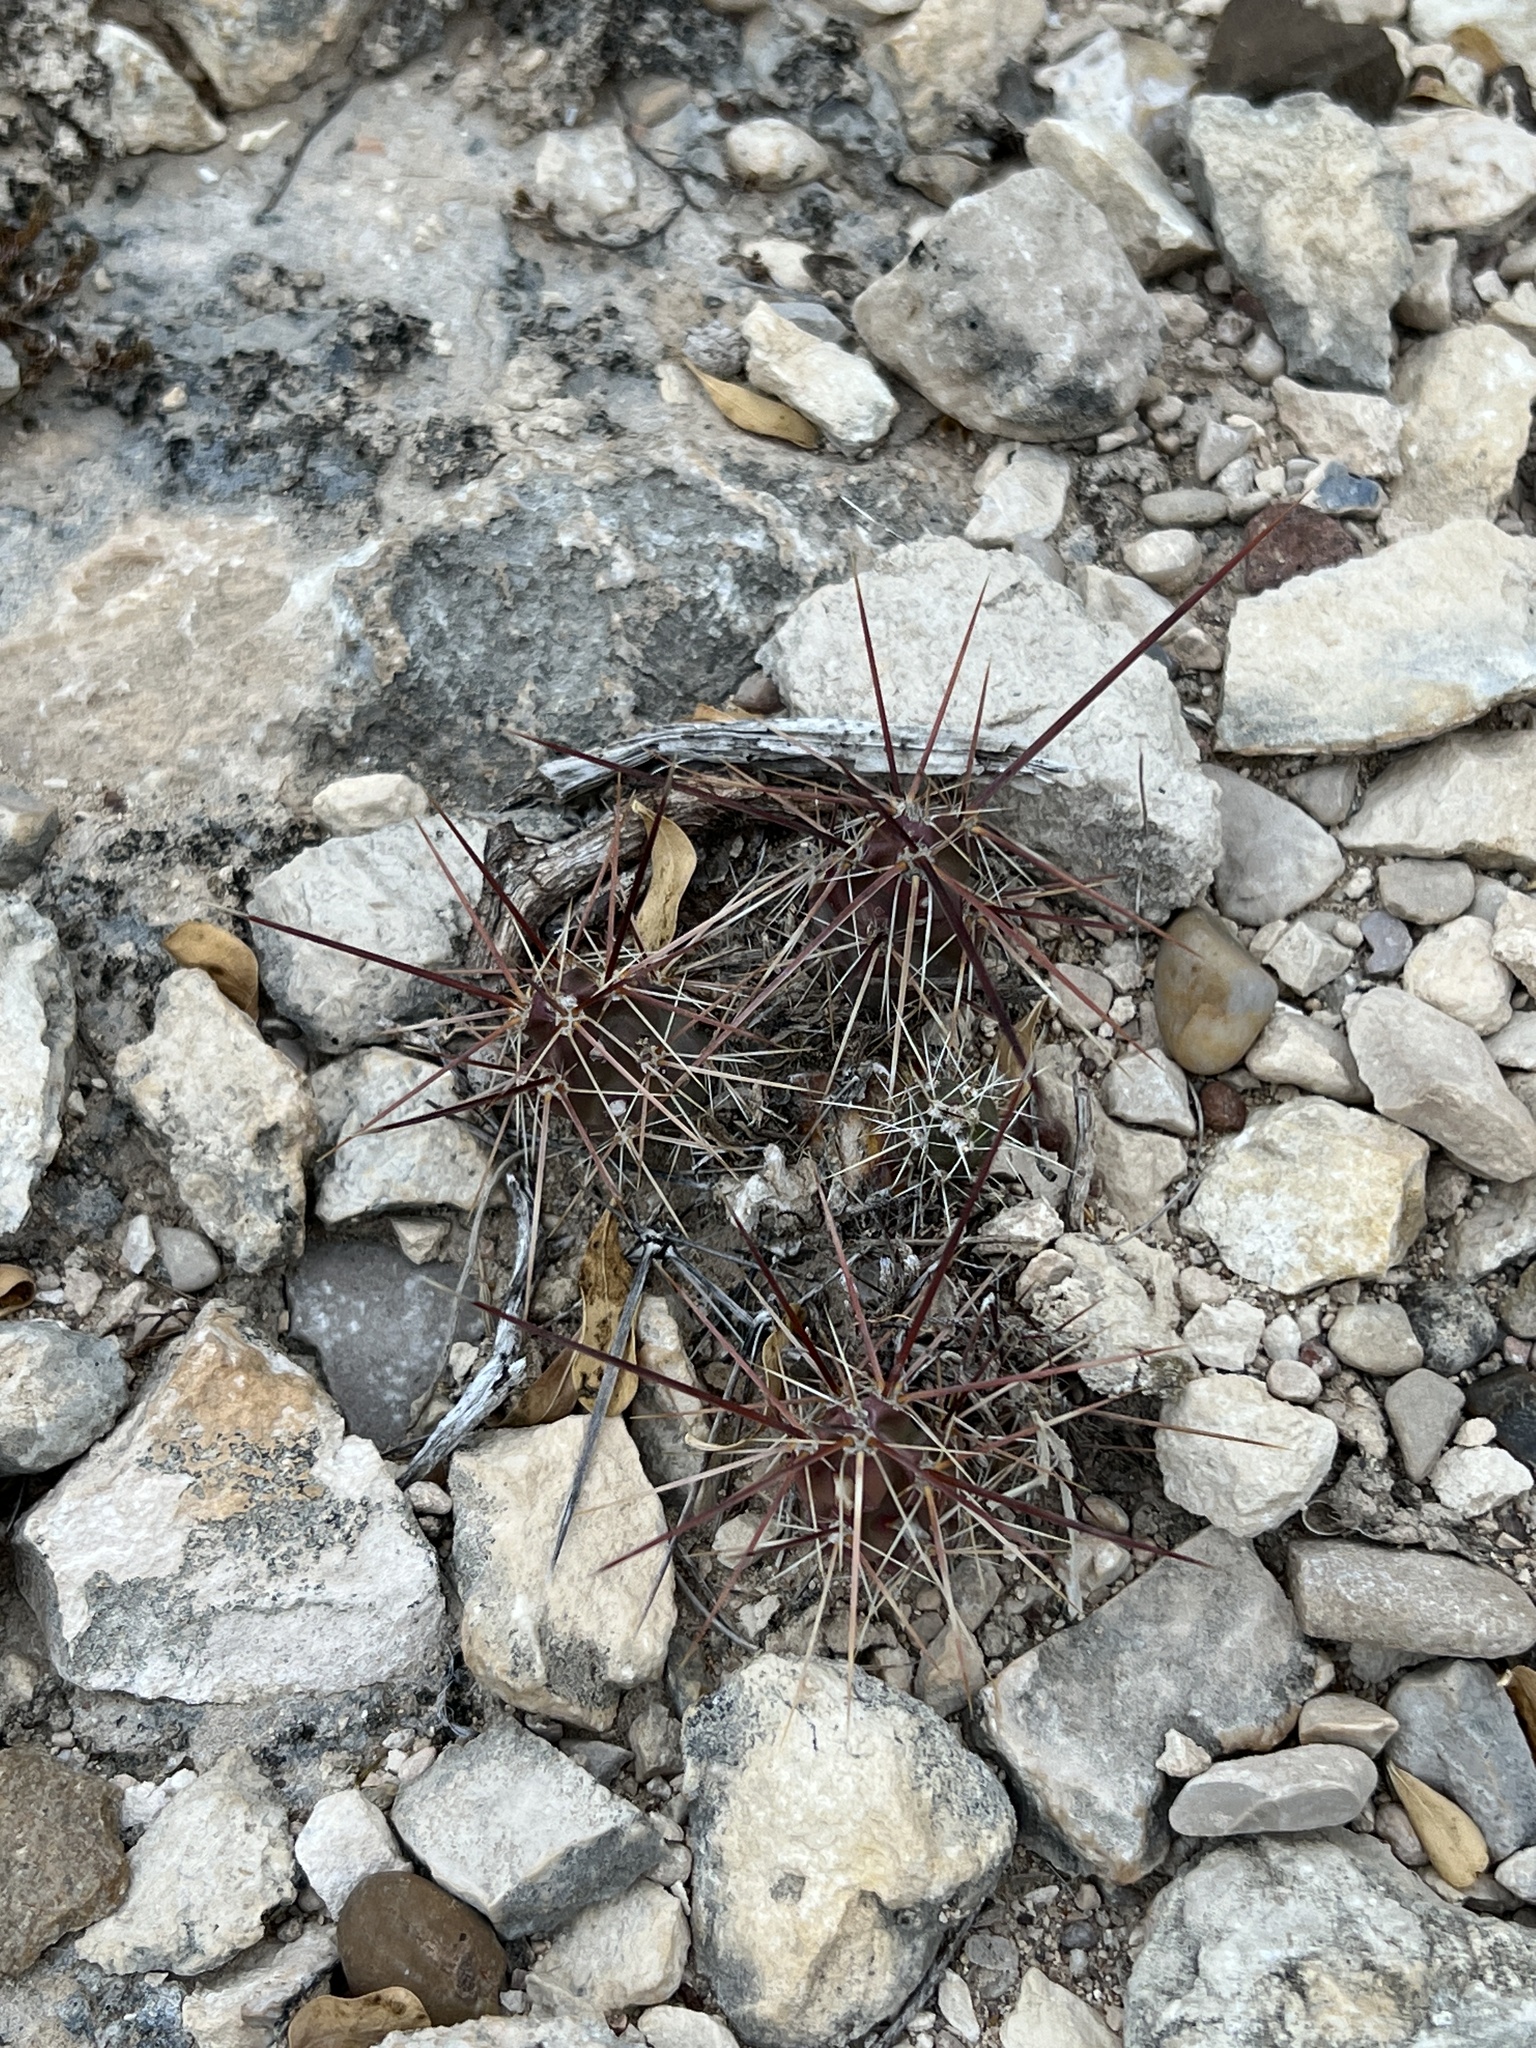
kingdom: Plantae
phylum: Tracheophyta
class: Magnoliopsida
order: Caryophyllales
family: Cactaceae
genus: Grusonia
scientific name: Grusonia schottii
